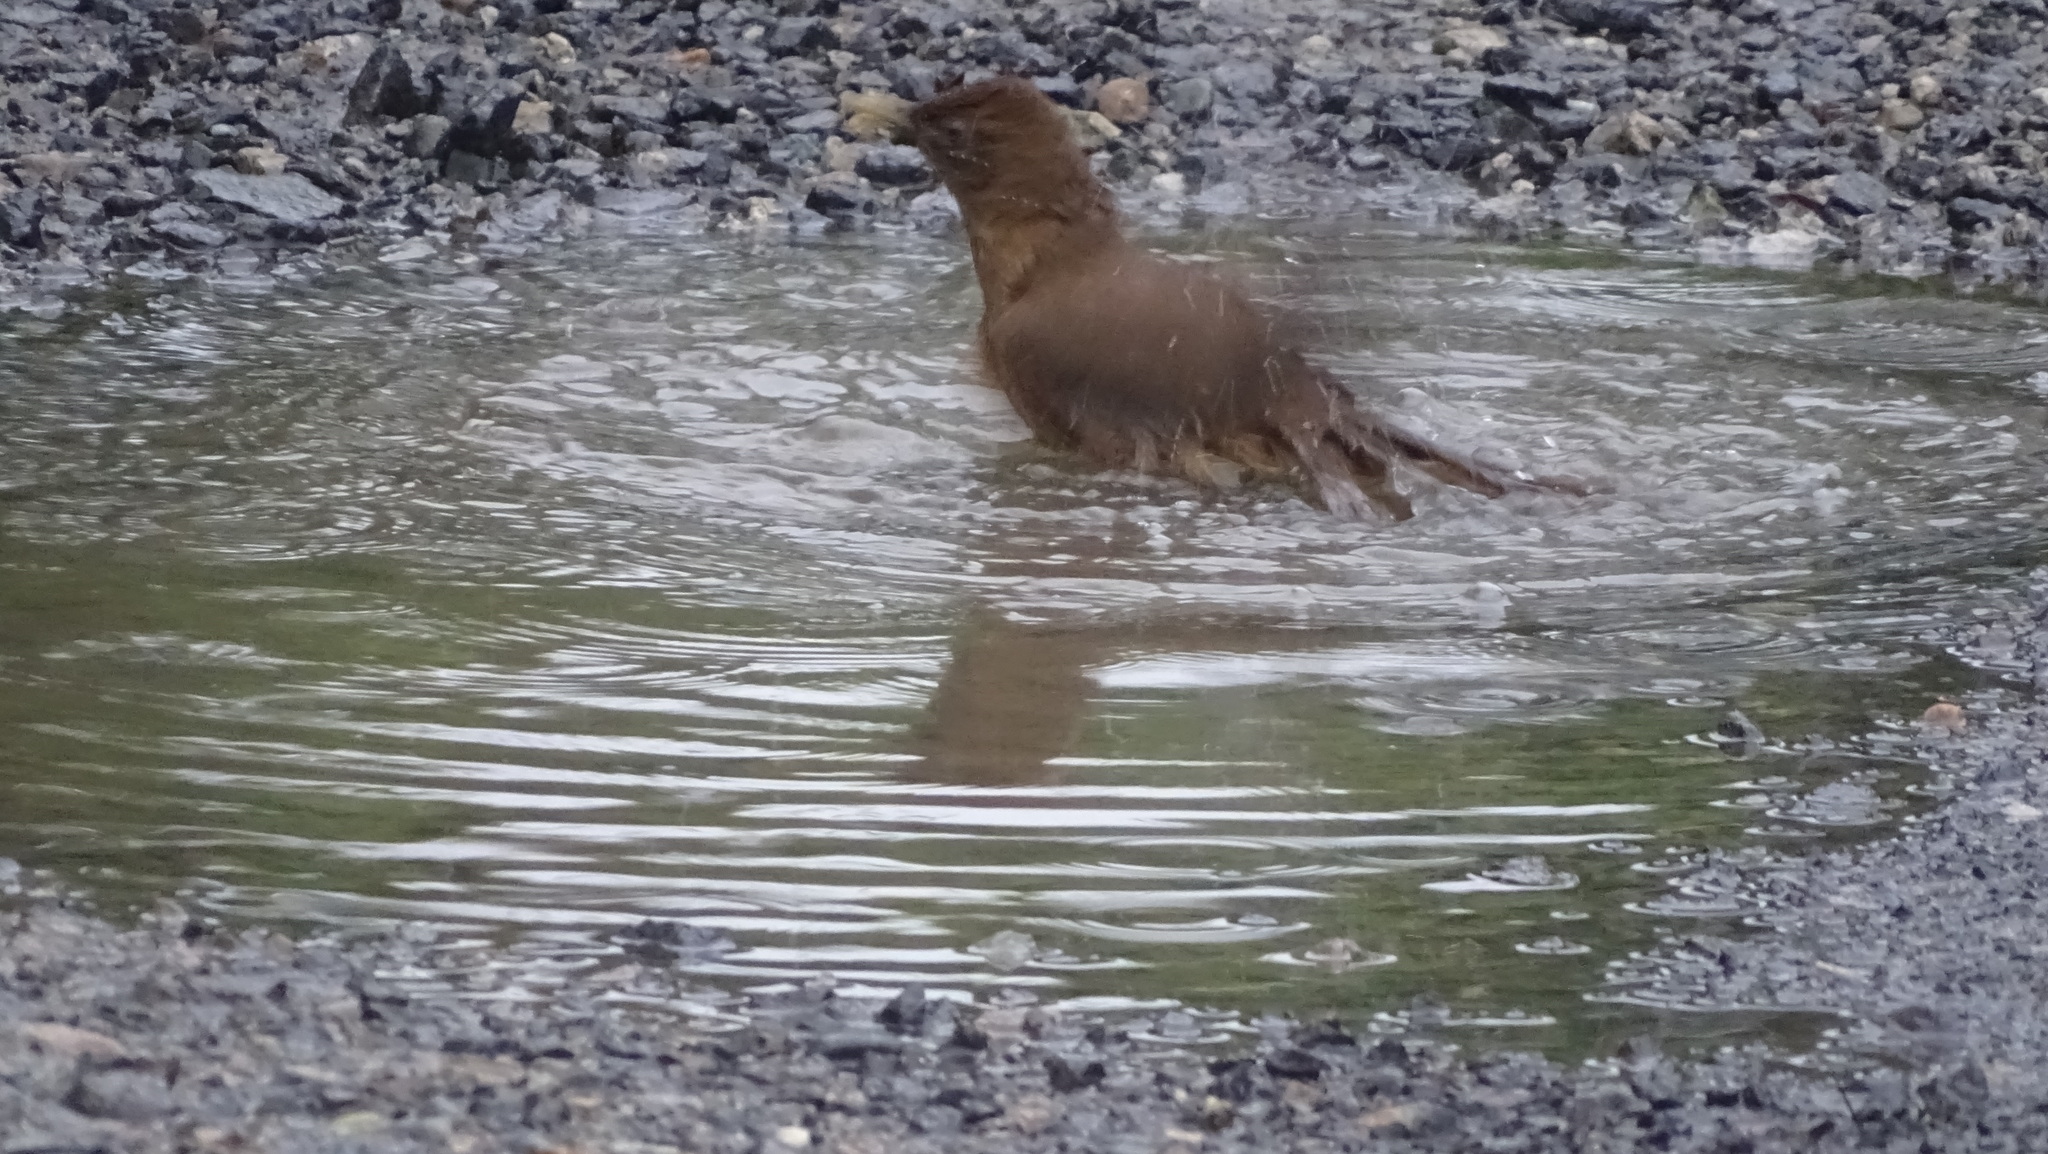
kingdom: Animalia
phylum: Chordata
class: Aves
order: Passeriformes
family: Turdidae
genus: Turdus
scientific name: Turdus grayi
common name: Clay-colored thrush
